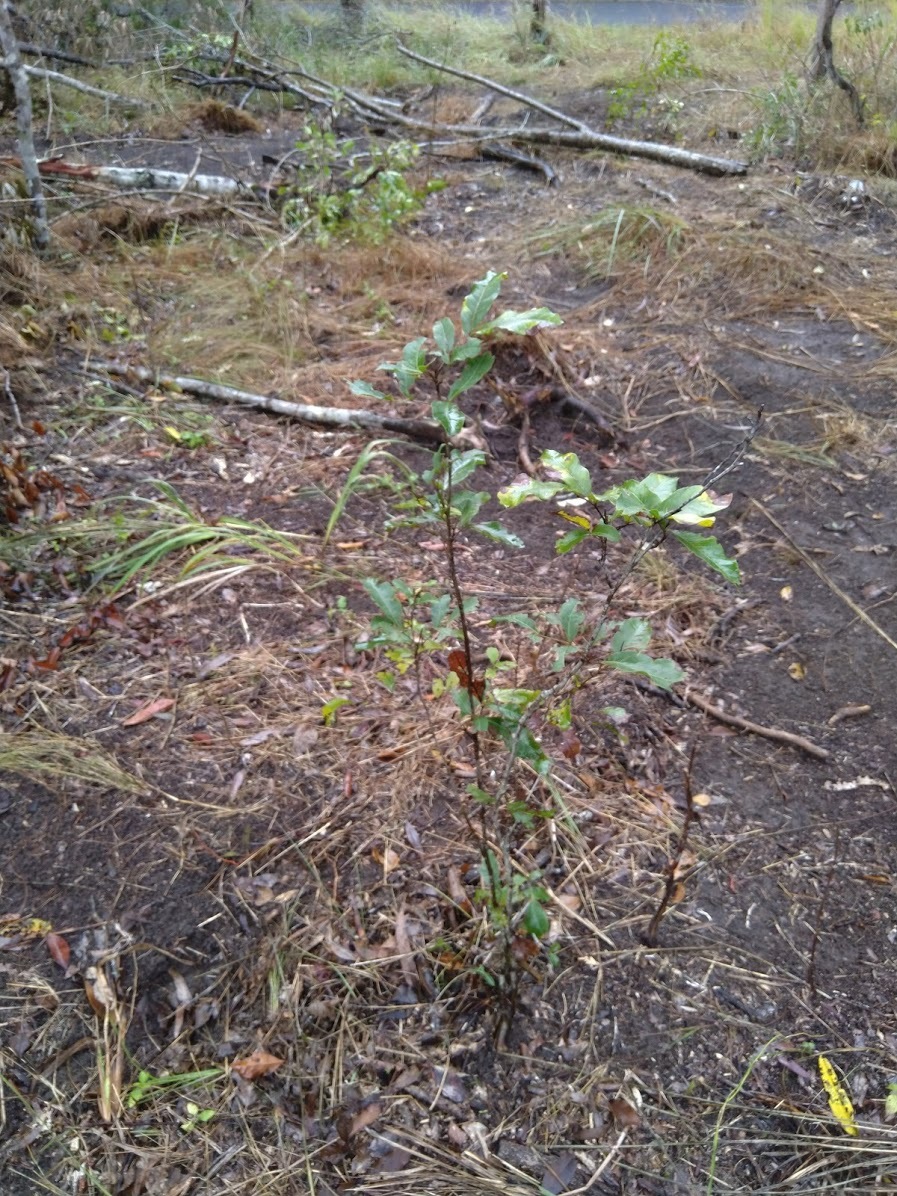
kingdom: Plantae
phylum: Tracheophyta
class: Magnoliopsida
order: Sapindales
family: Sapindaceae
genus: Alectryon
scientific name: Alectryon connatus
